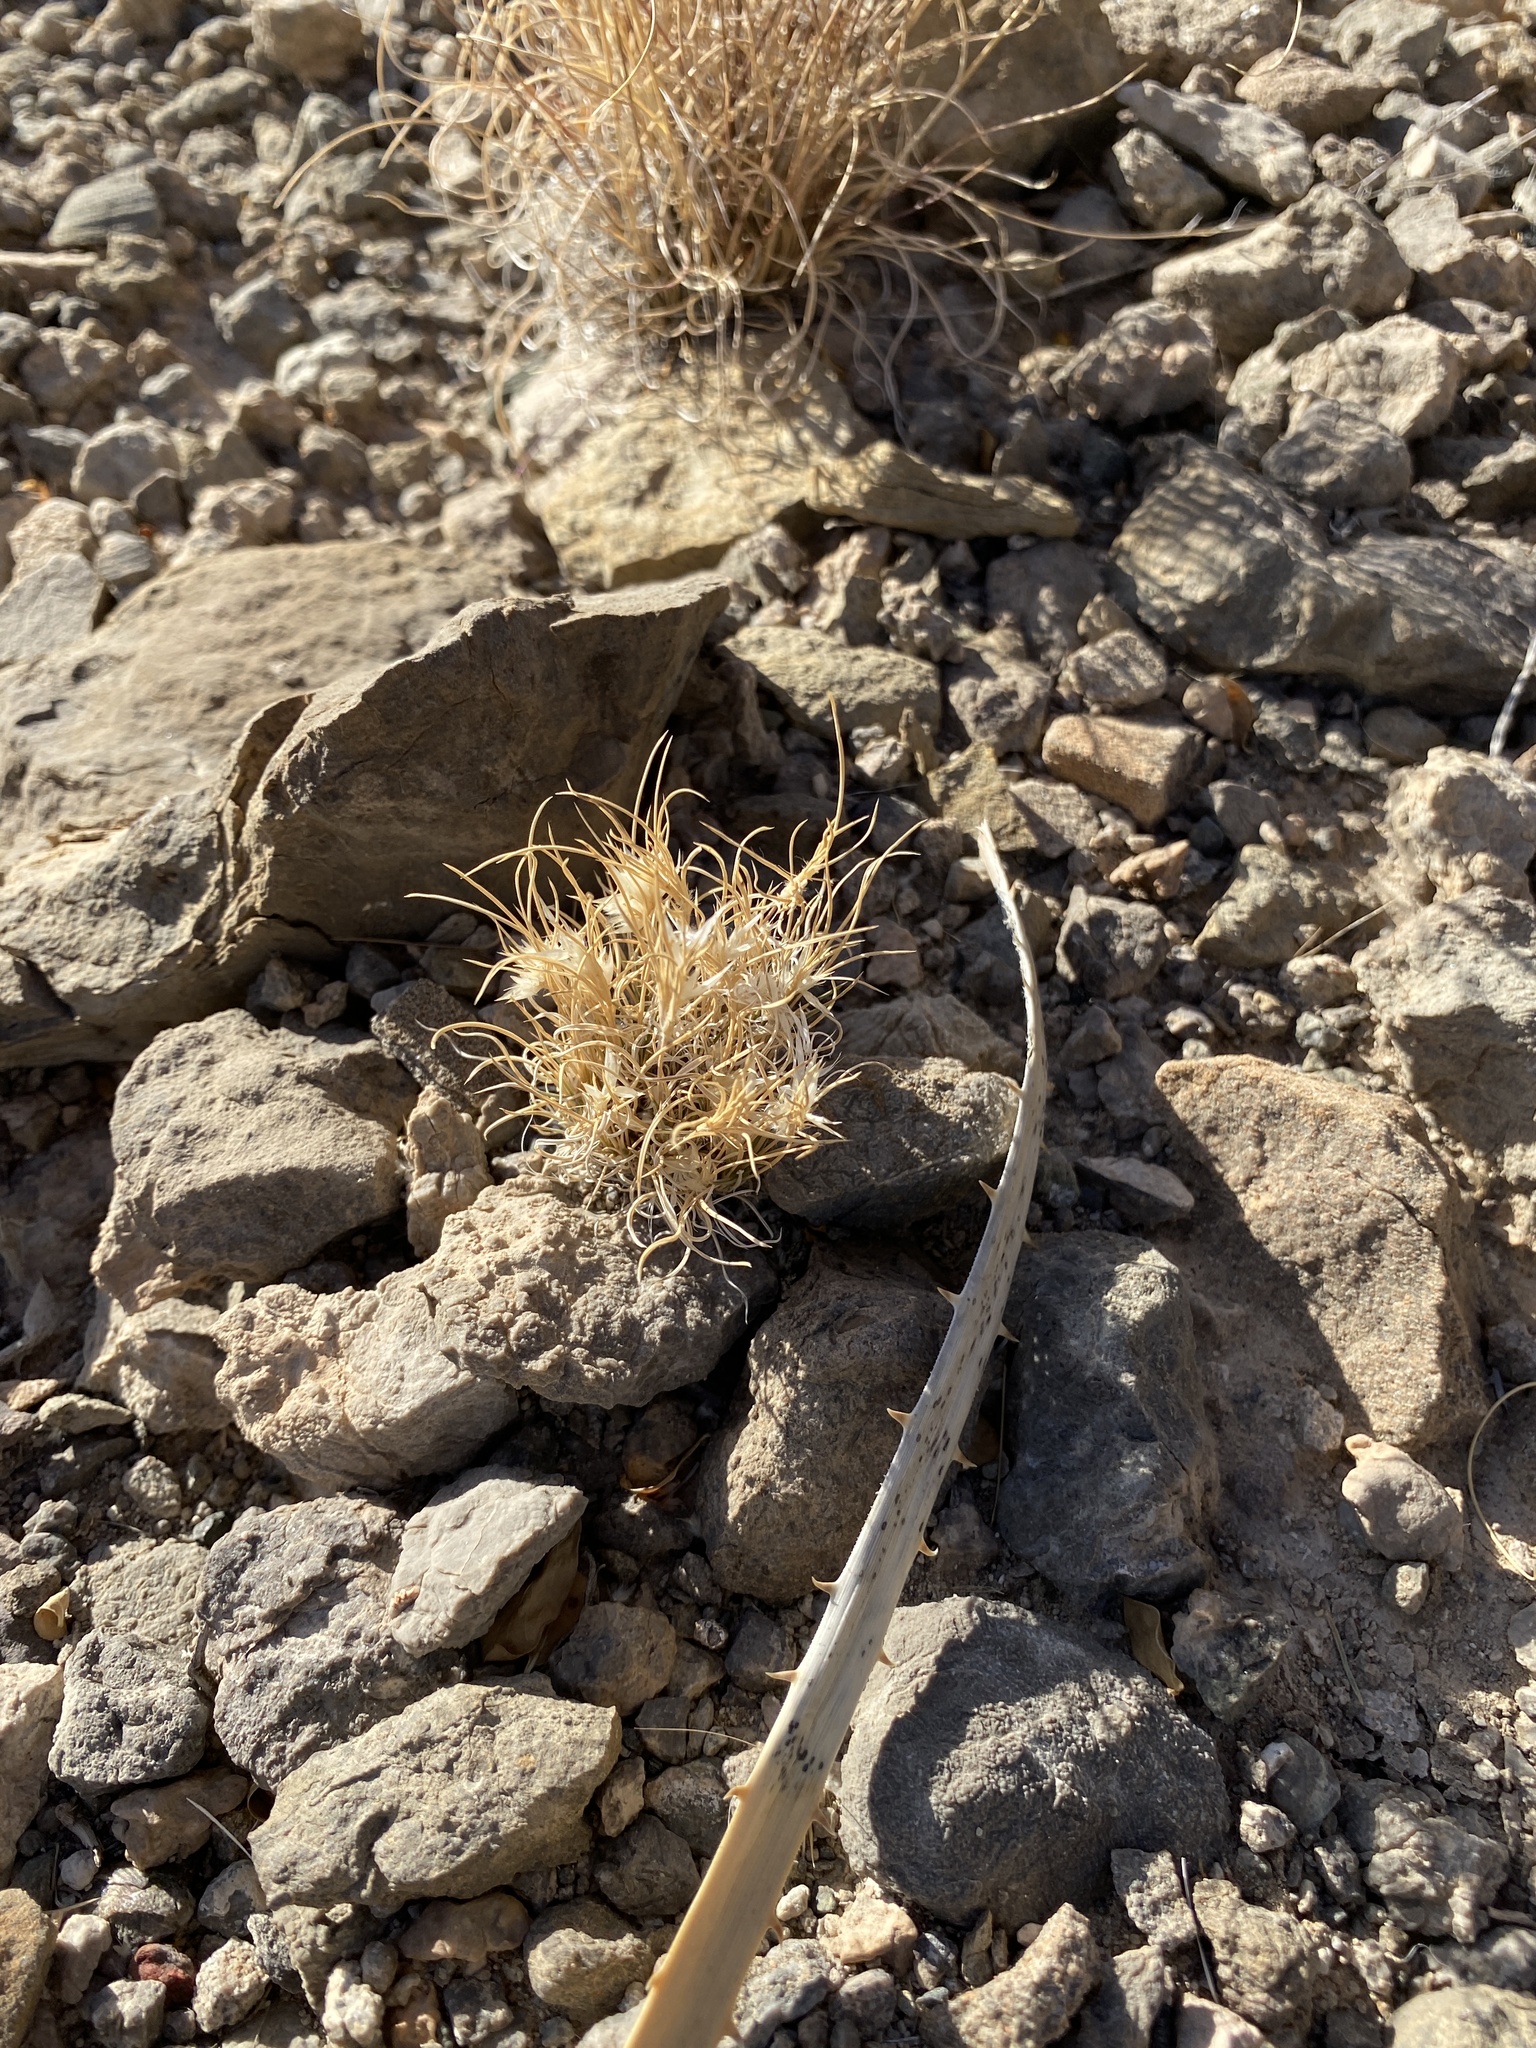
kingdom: Plantae
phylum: Tracheophyta
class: Liliopsida
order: Poales
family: Poaceae
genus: Dasyochloa
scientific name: Dasyochloa pulchella
